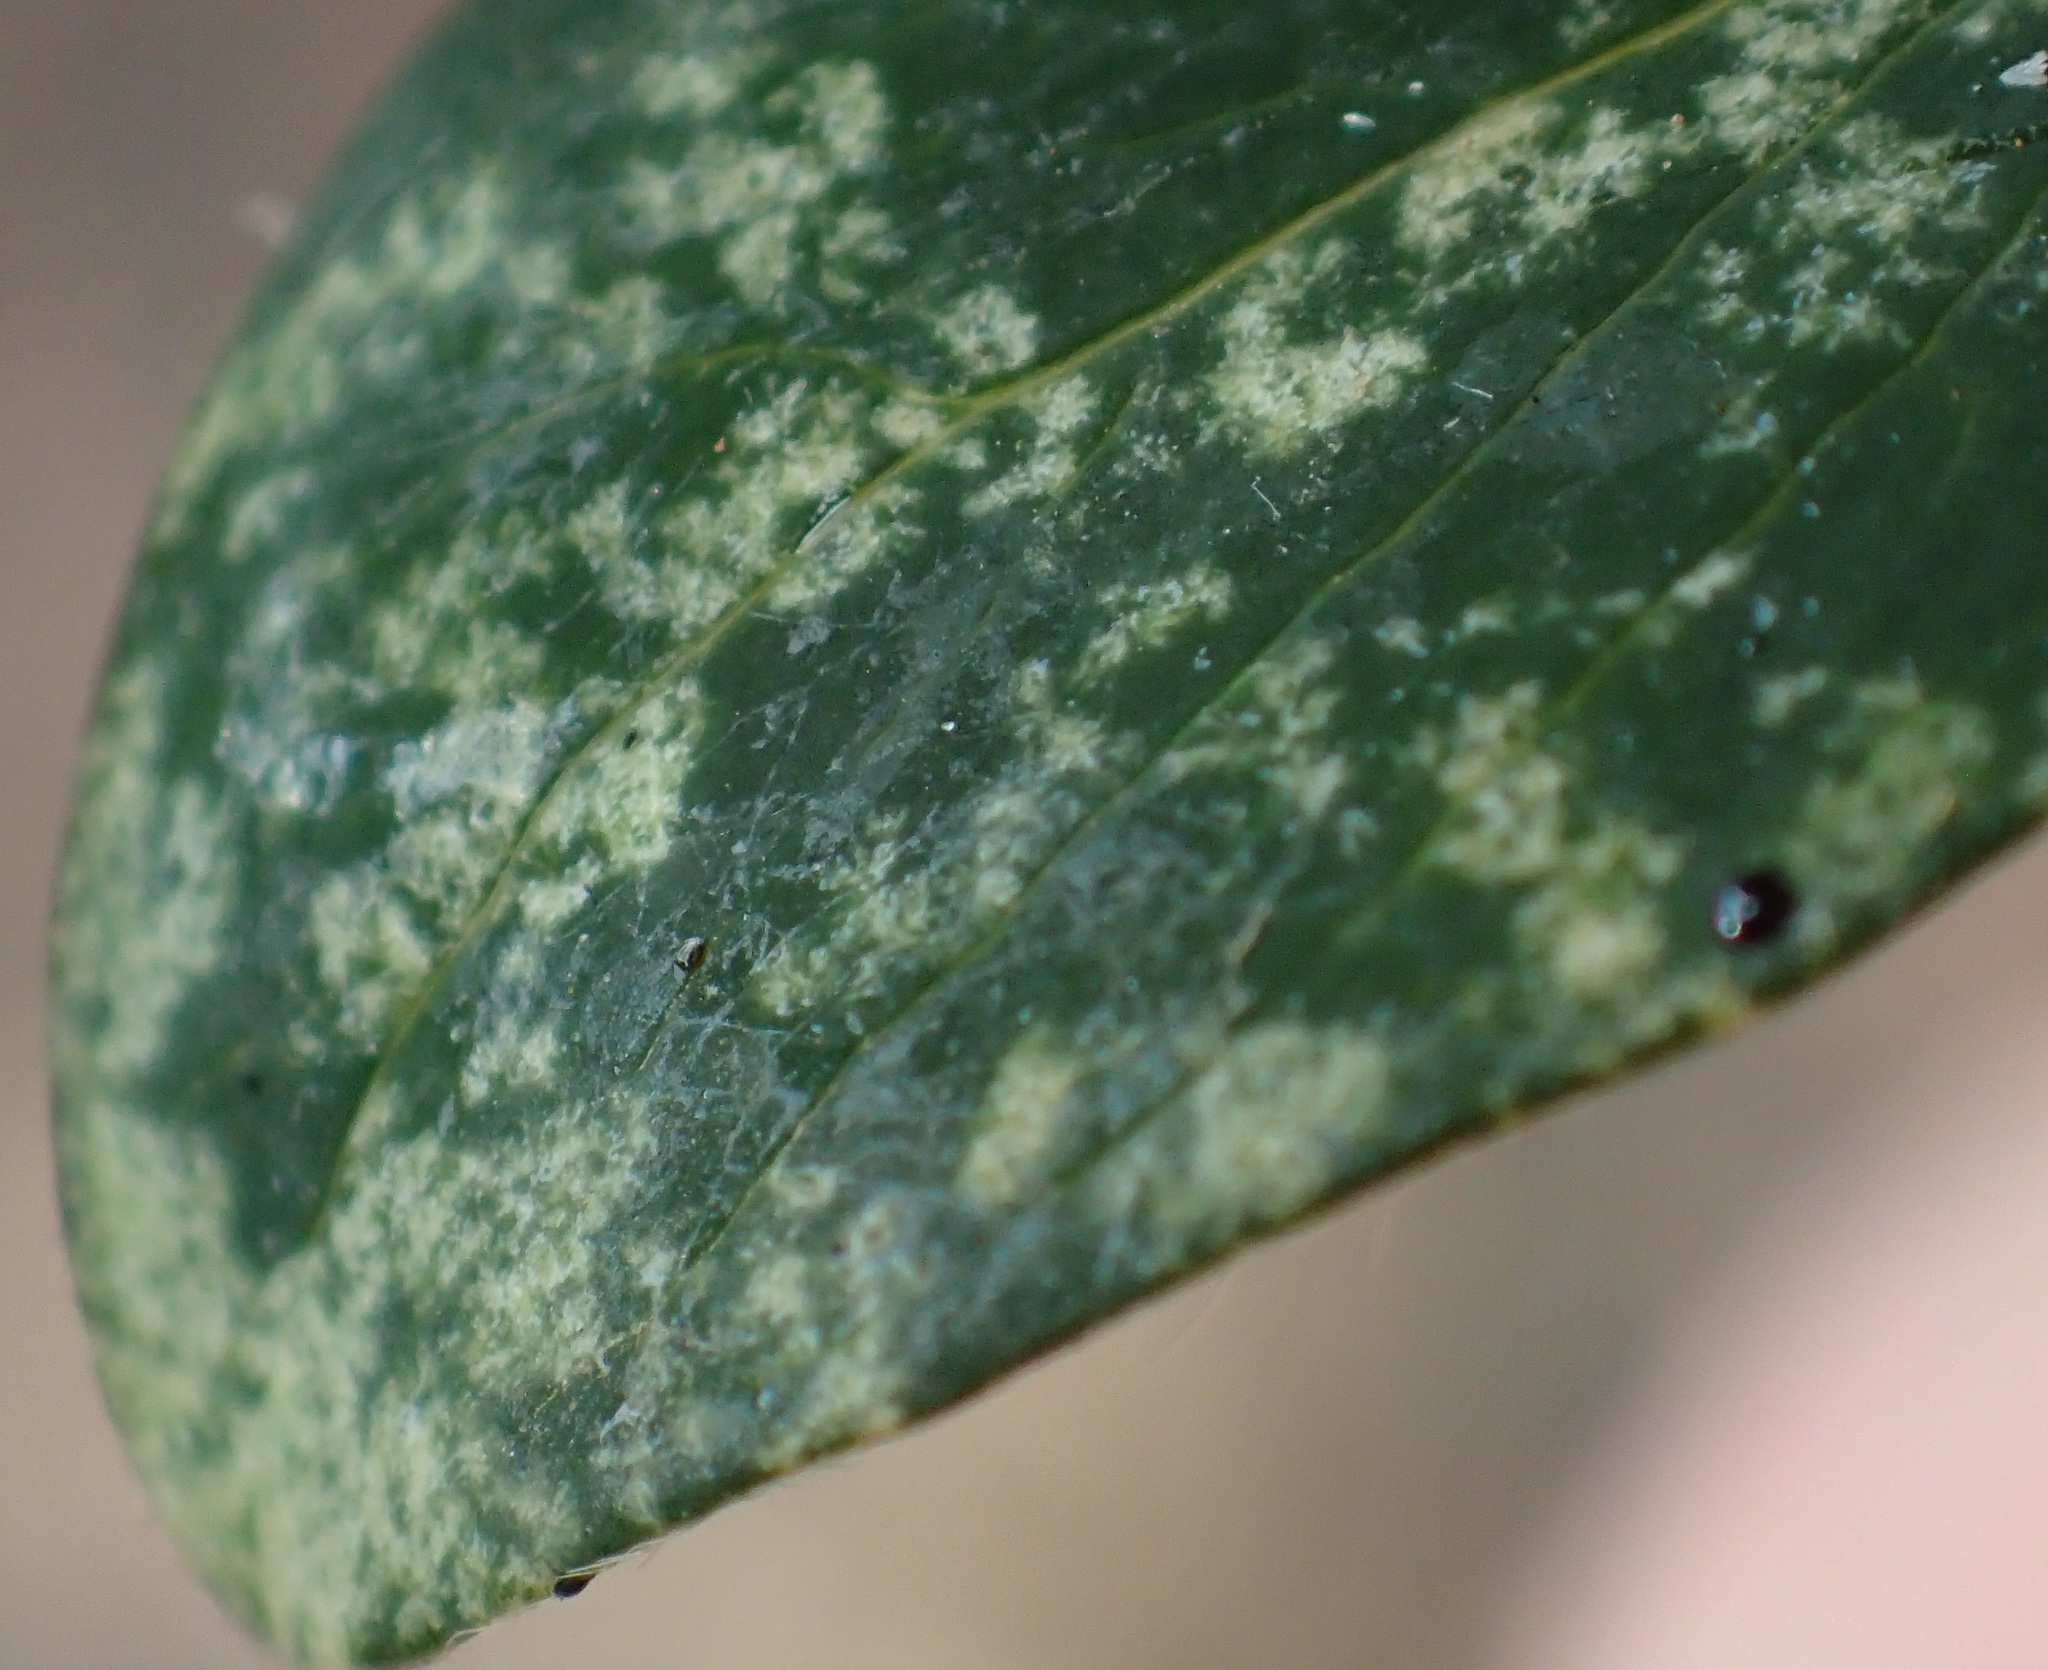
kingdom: Animalia
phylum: Arthropoda
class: Insecta
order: Hemiptera
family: Tingidae
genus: Oncophysa
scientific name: Oncophysa vesiculata
